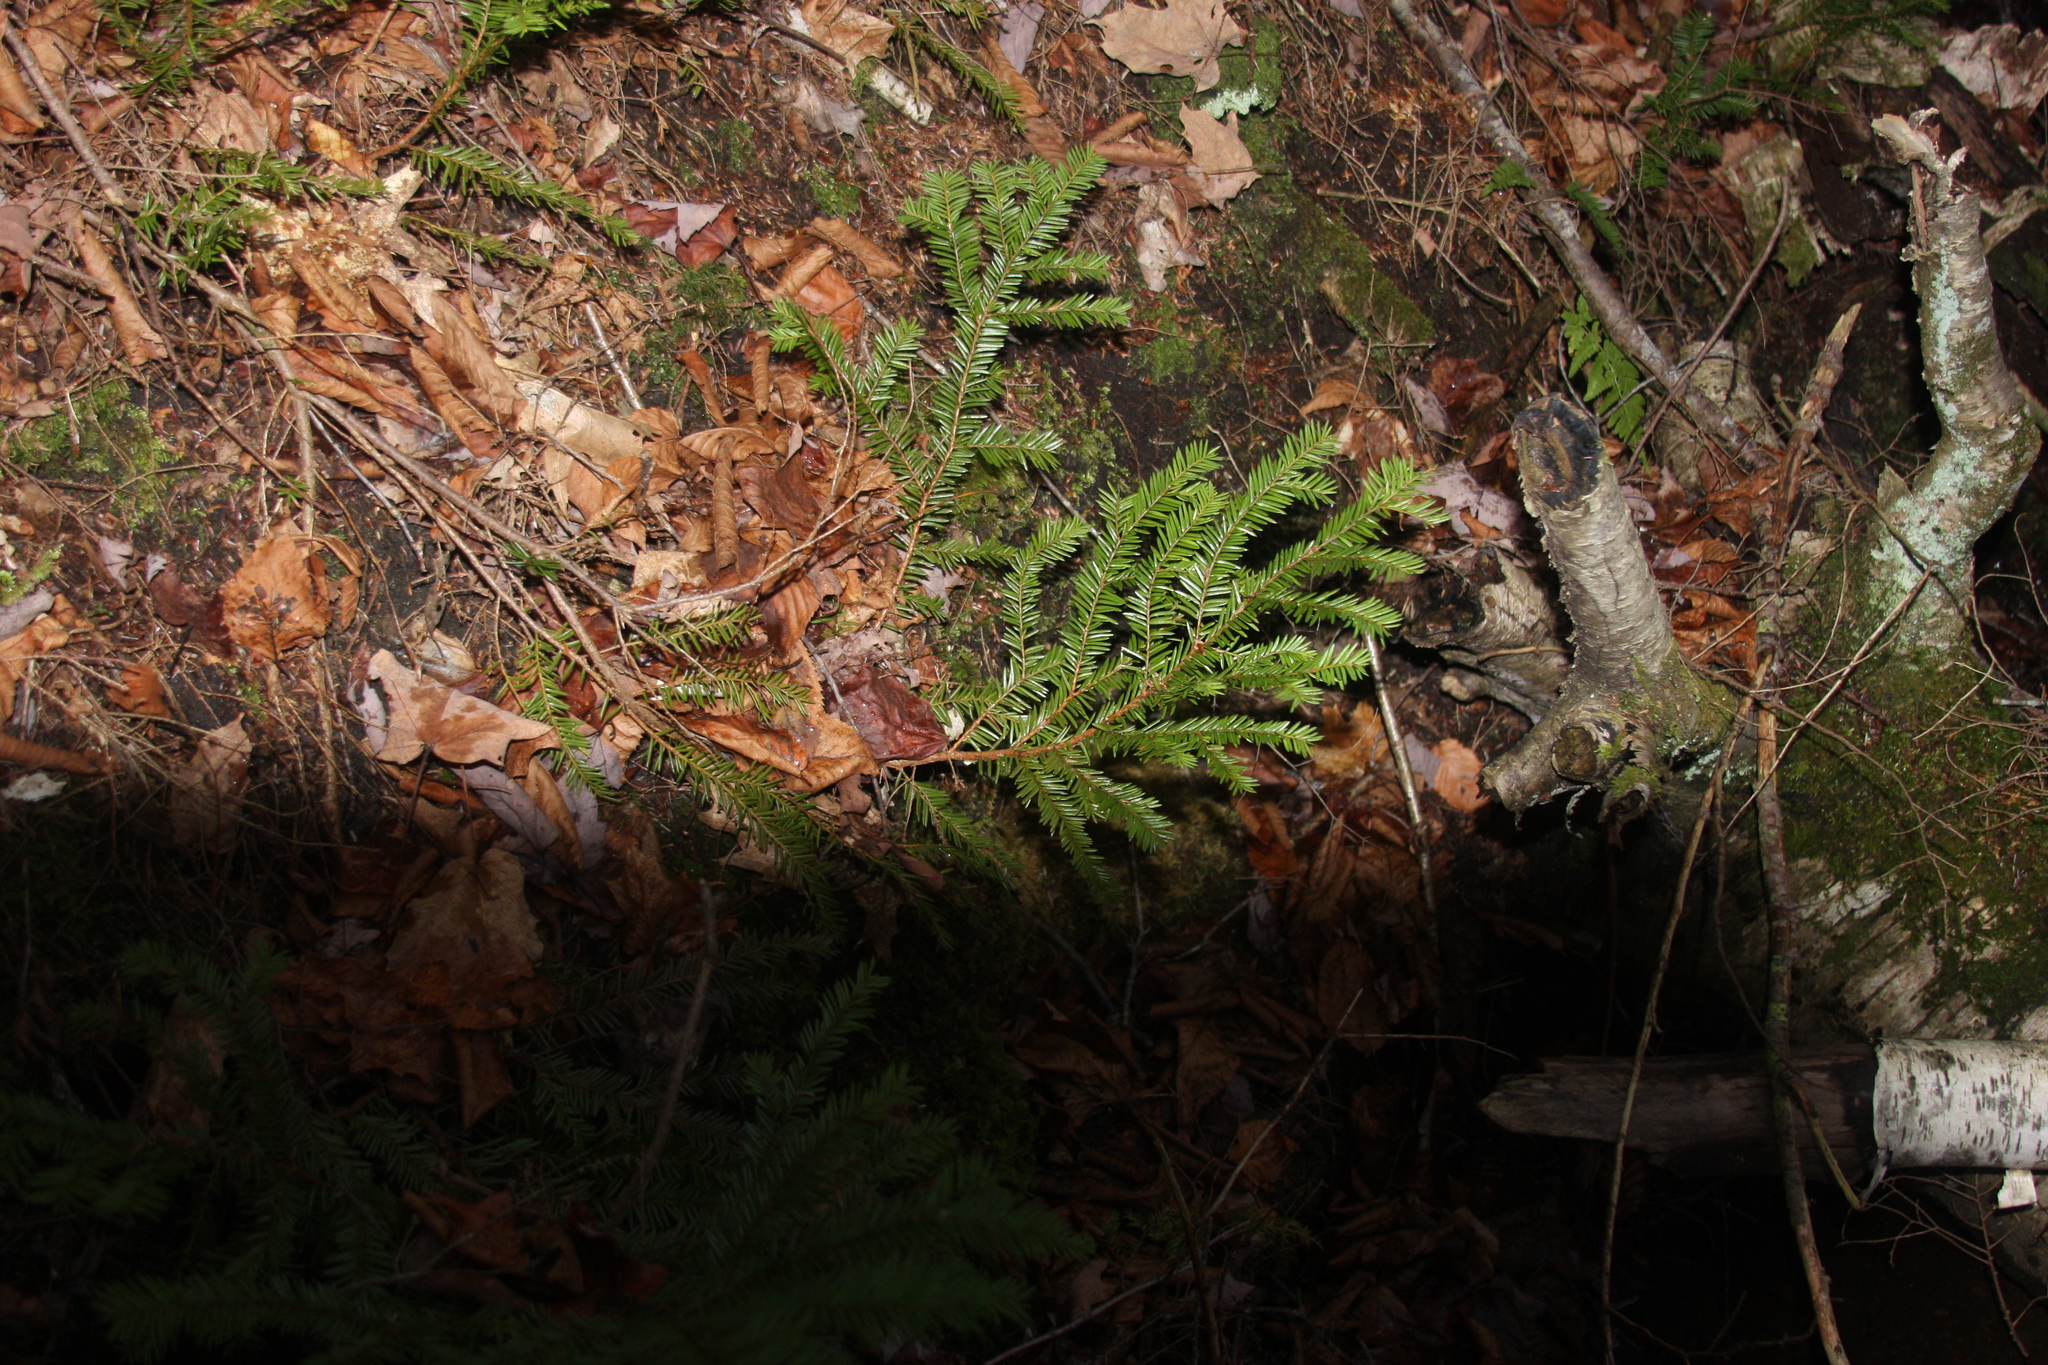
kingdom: Plantae
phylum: Tracheophyta
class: Pinopsida
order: Pinales
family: Taxaceae
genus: Taxus
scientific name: Taxus canadensis
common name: American yew
